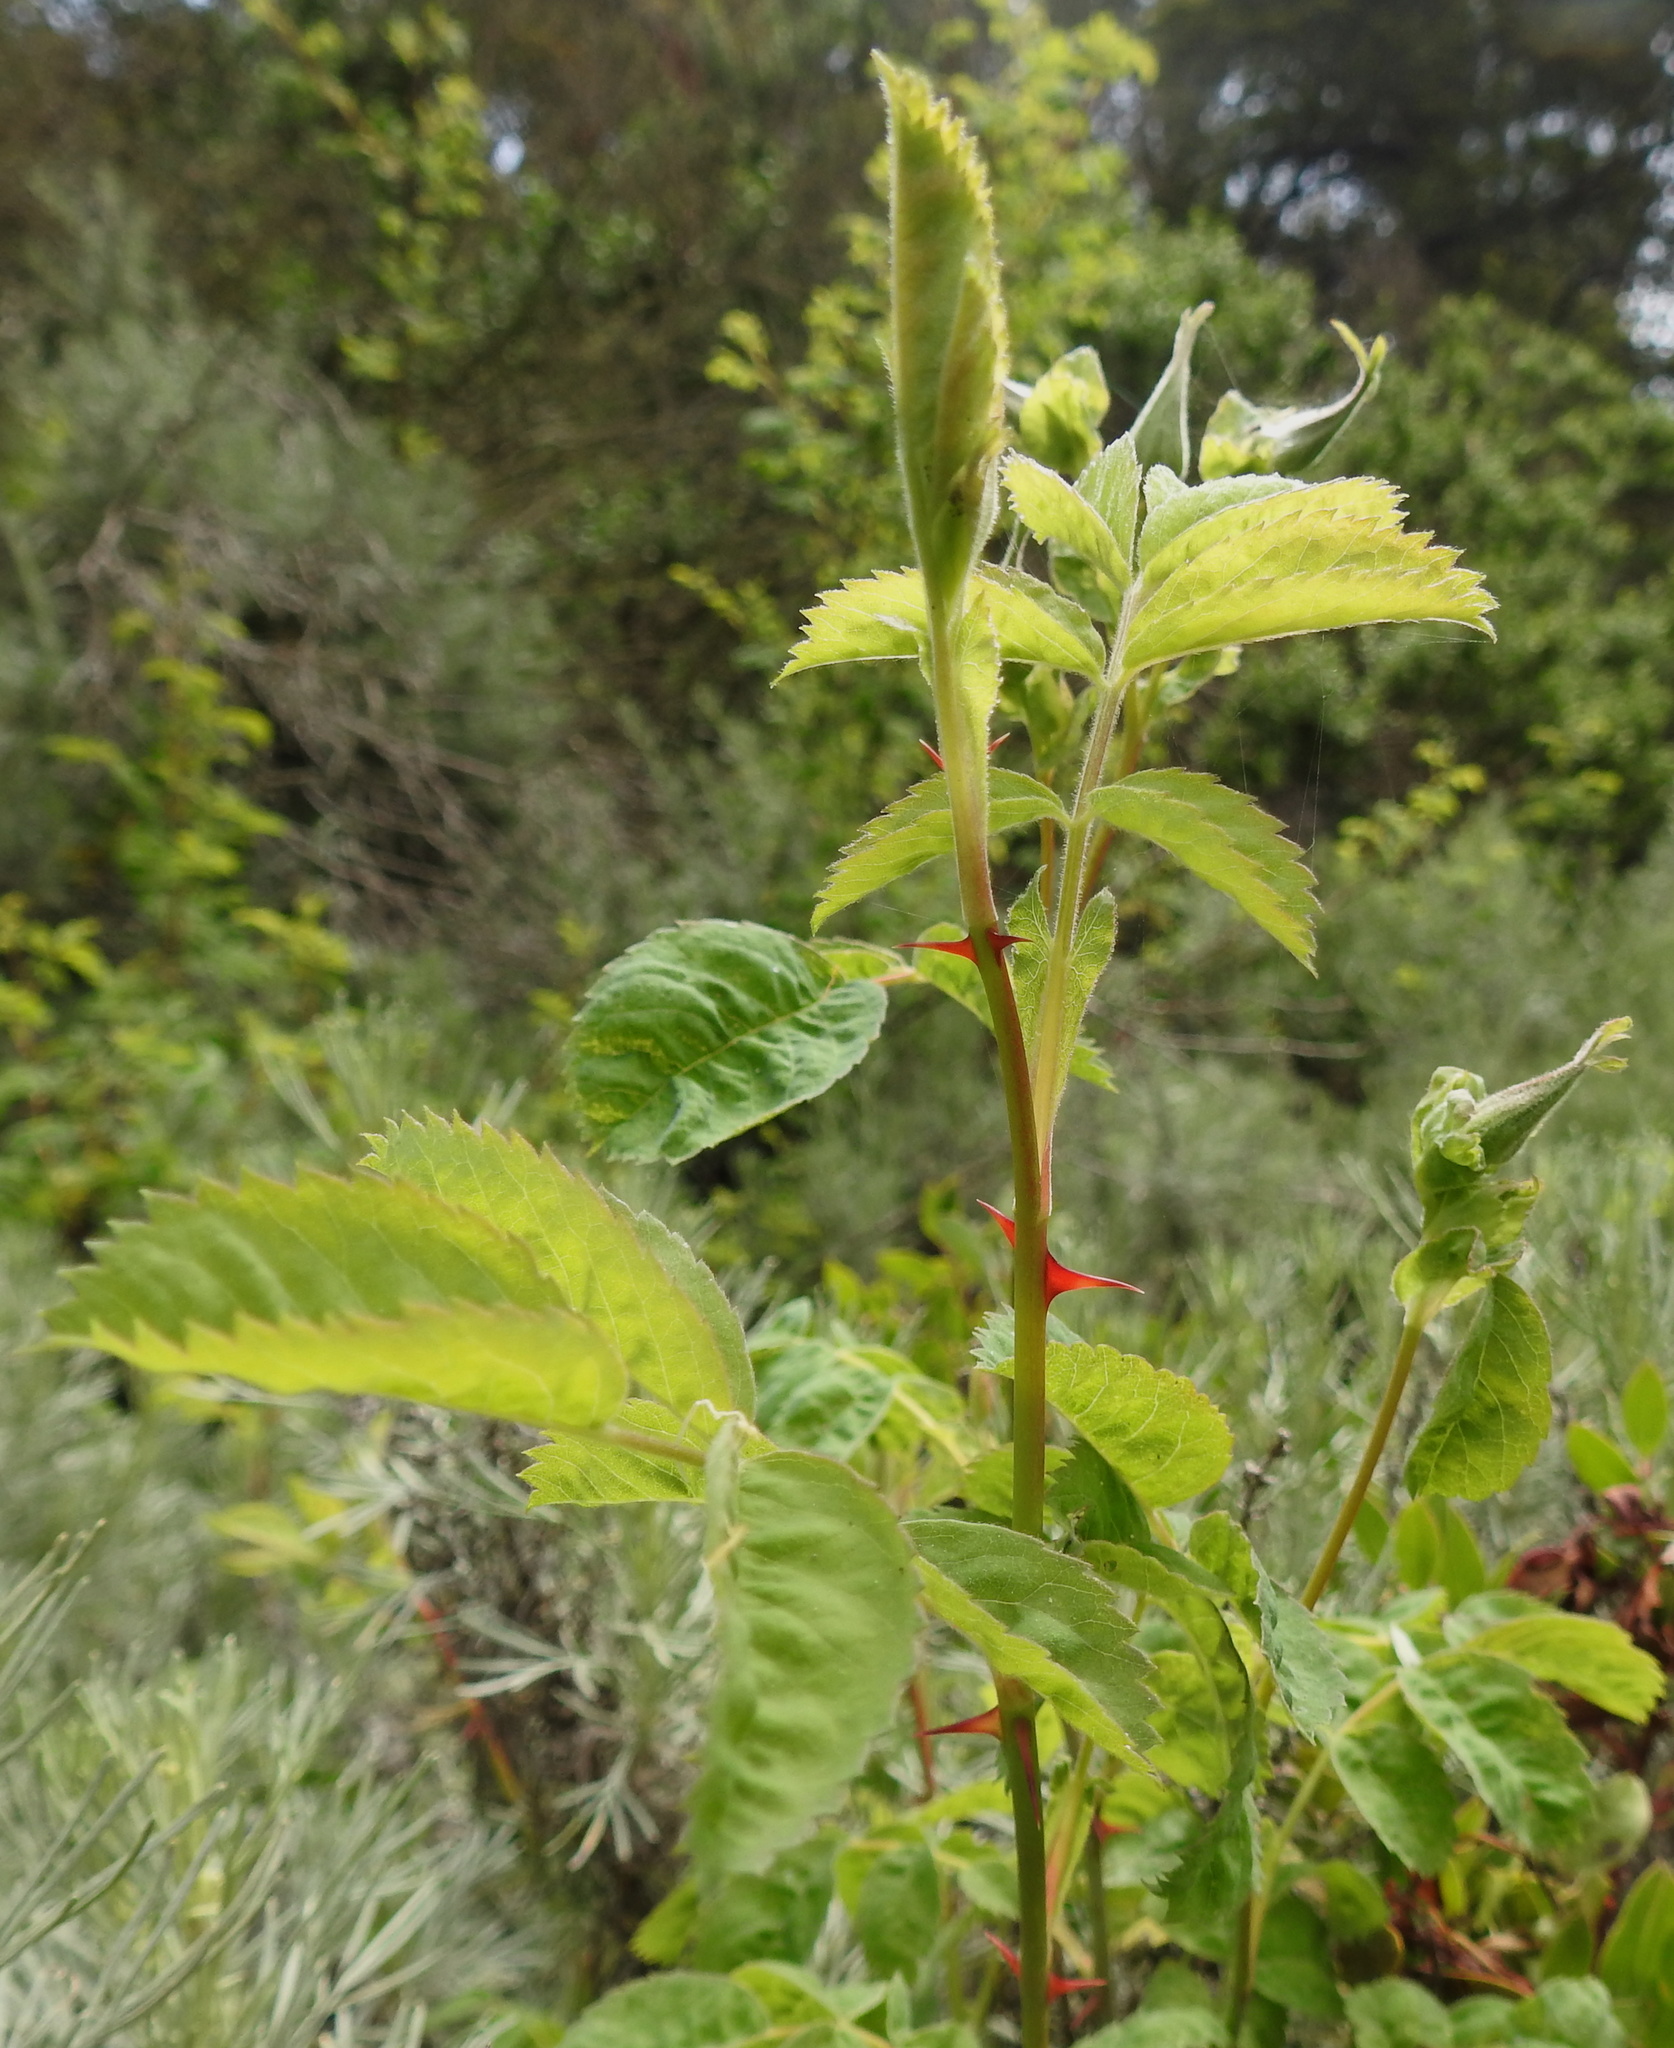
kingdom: Plantae
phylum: Tracheophyta
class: Magnoliopsida
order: Rosales
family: Rosaceae
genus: Rosa
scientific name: Rosa californica
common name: California rose
